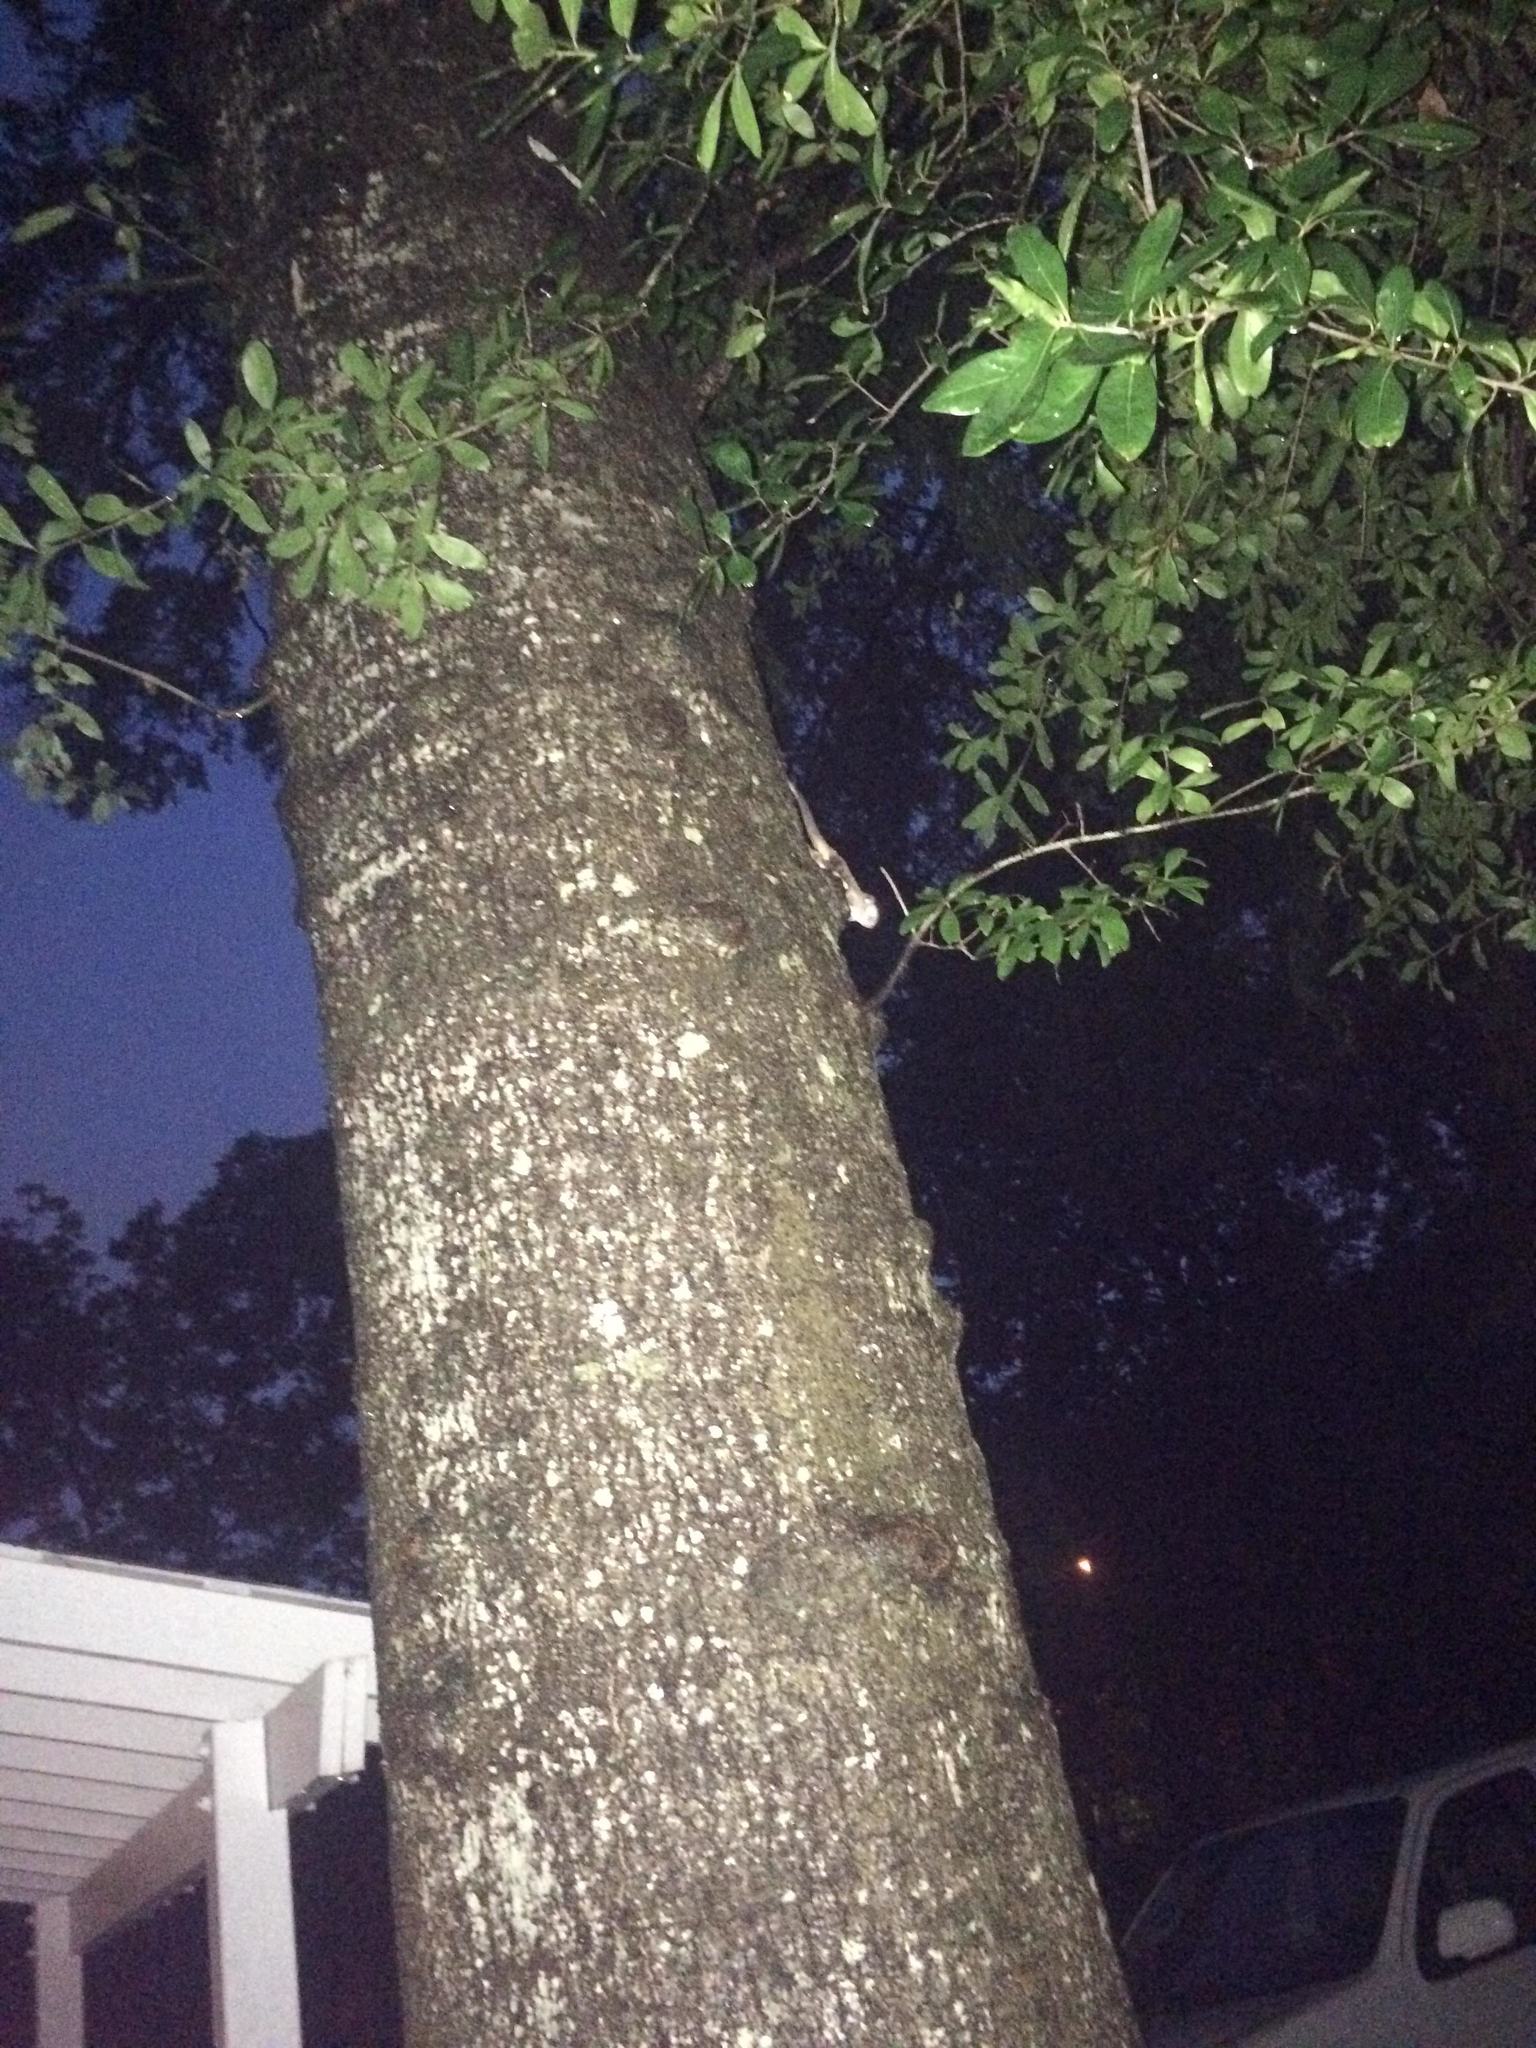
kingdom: Animalia
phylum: Chordata
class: Mammalia
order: Rodentia
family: Sciuridae
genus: Glaucomys
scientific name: Glaucomys volans
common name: Southern flying squirrel
